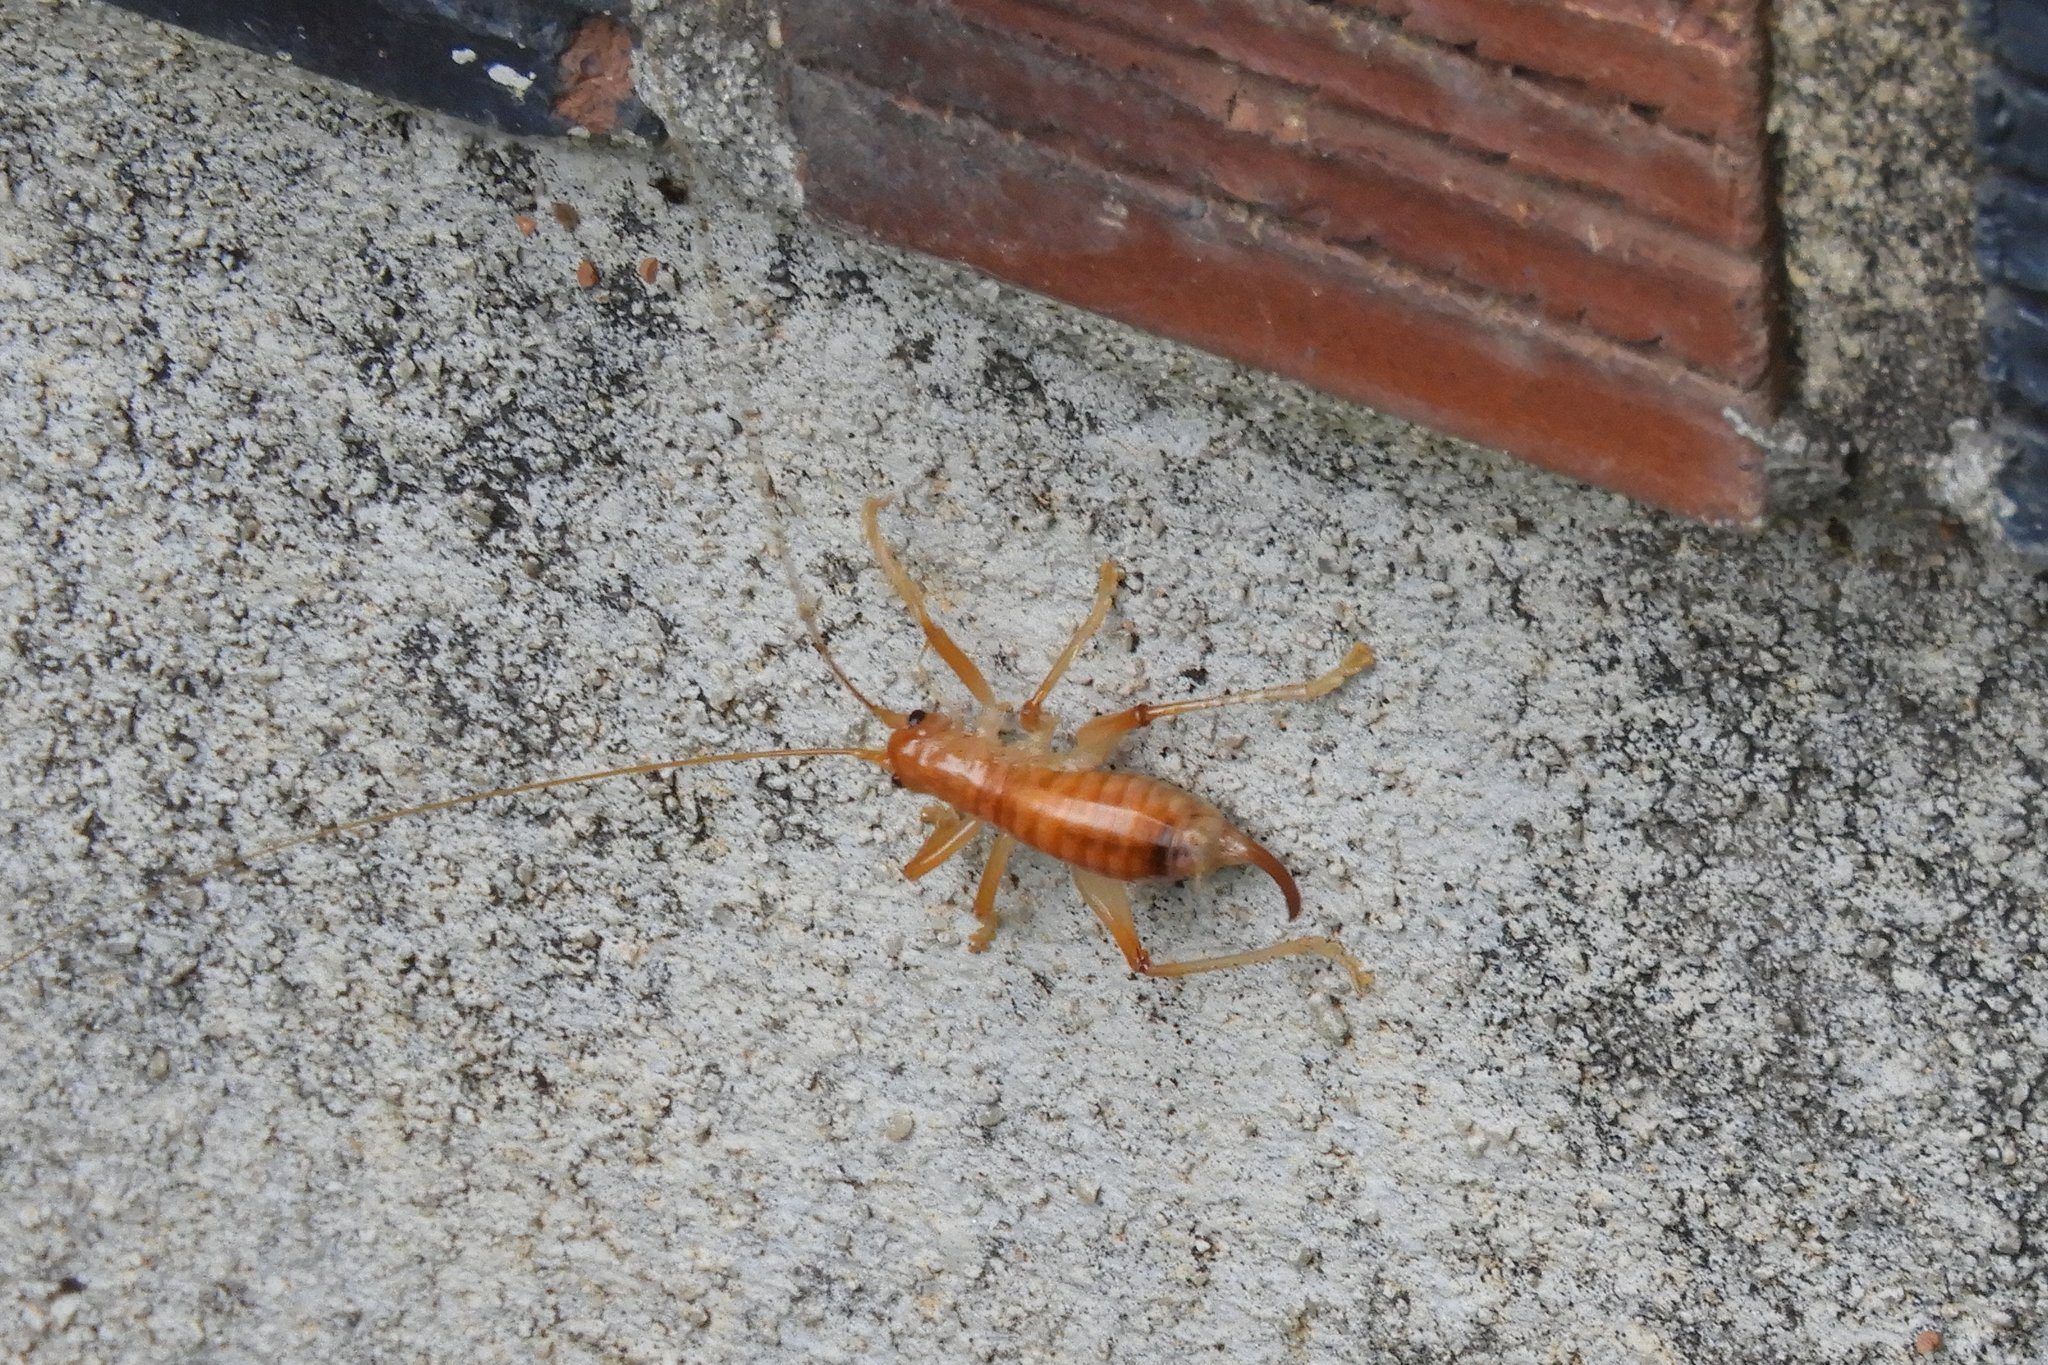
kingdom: Animalia
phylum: Arthropoda
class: Insecta
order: Orthoptera
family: Gryllacrididae
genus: Camptonotus
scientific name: Camptonotus carolinensis
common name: Carolina leaf-roller
